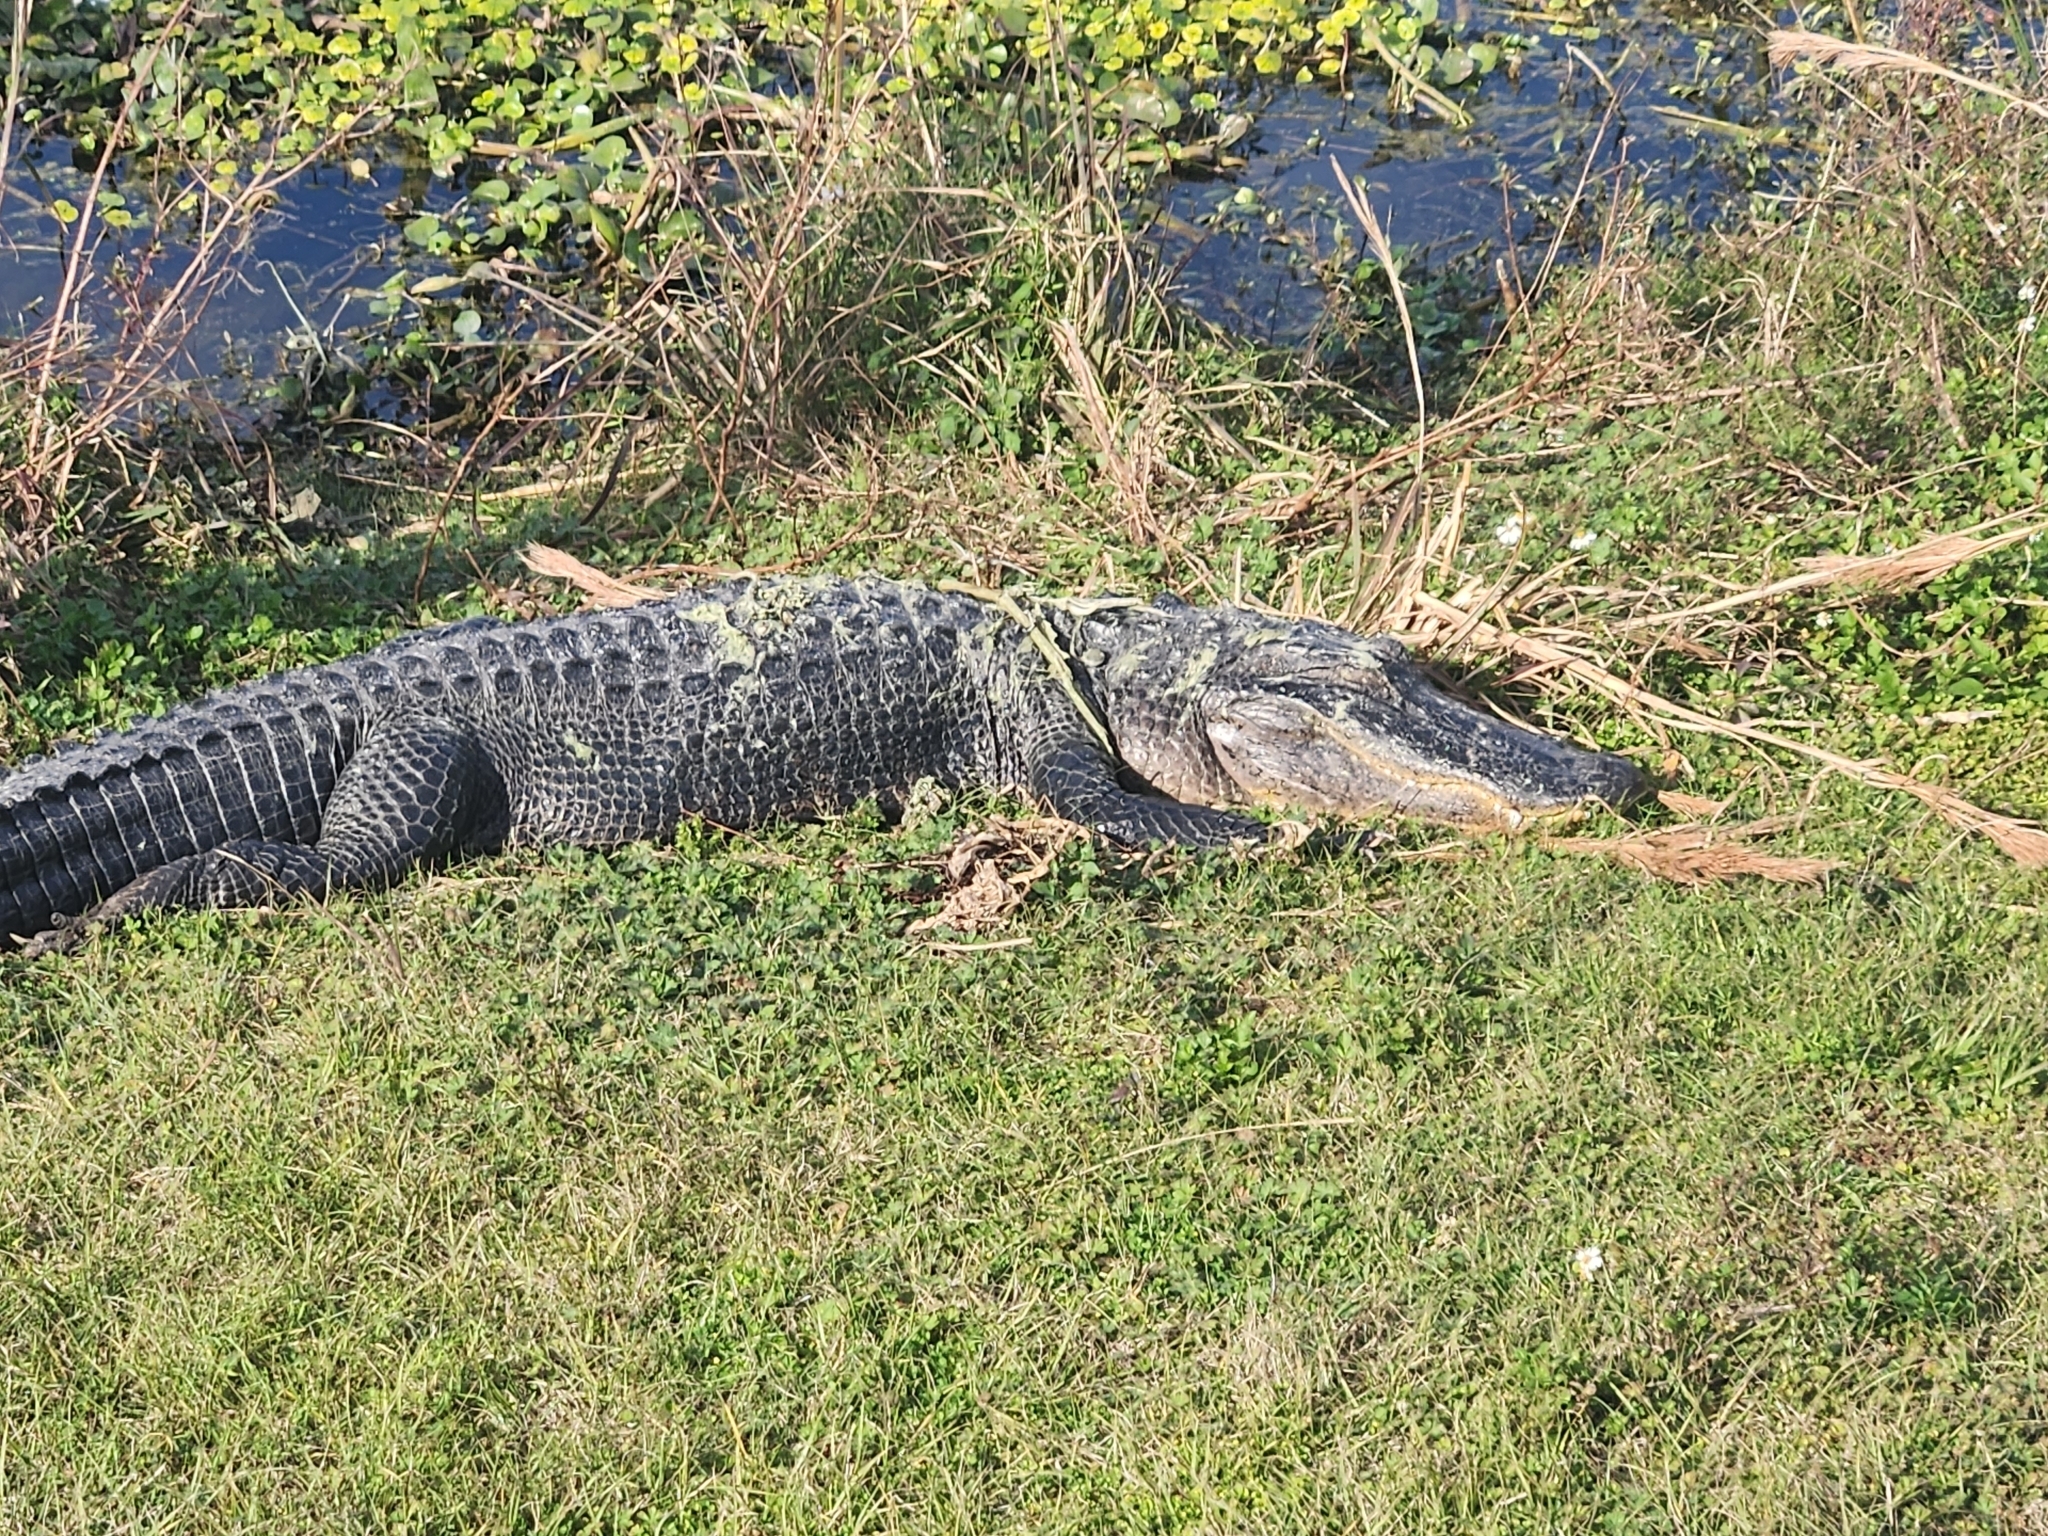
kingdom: Animalia
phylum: Chordata
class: Crocodylia
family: Alligatoridae
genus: Alligator
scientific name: Alligator mississippiensis
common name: American alligator
